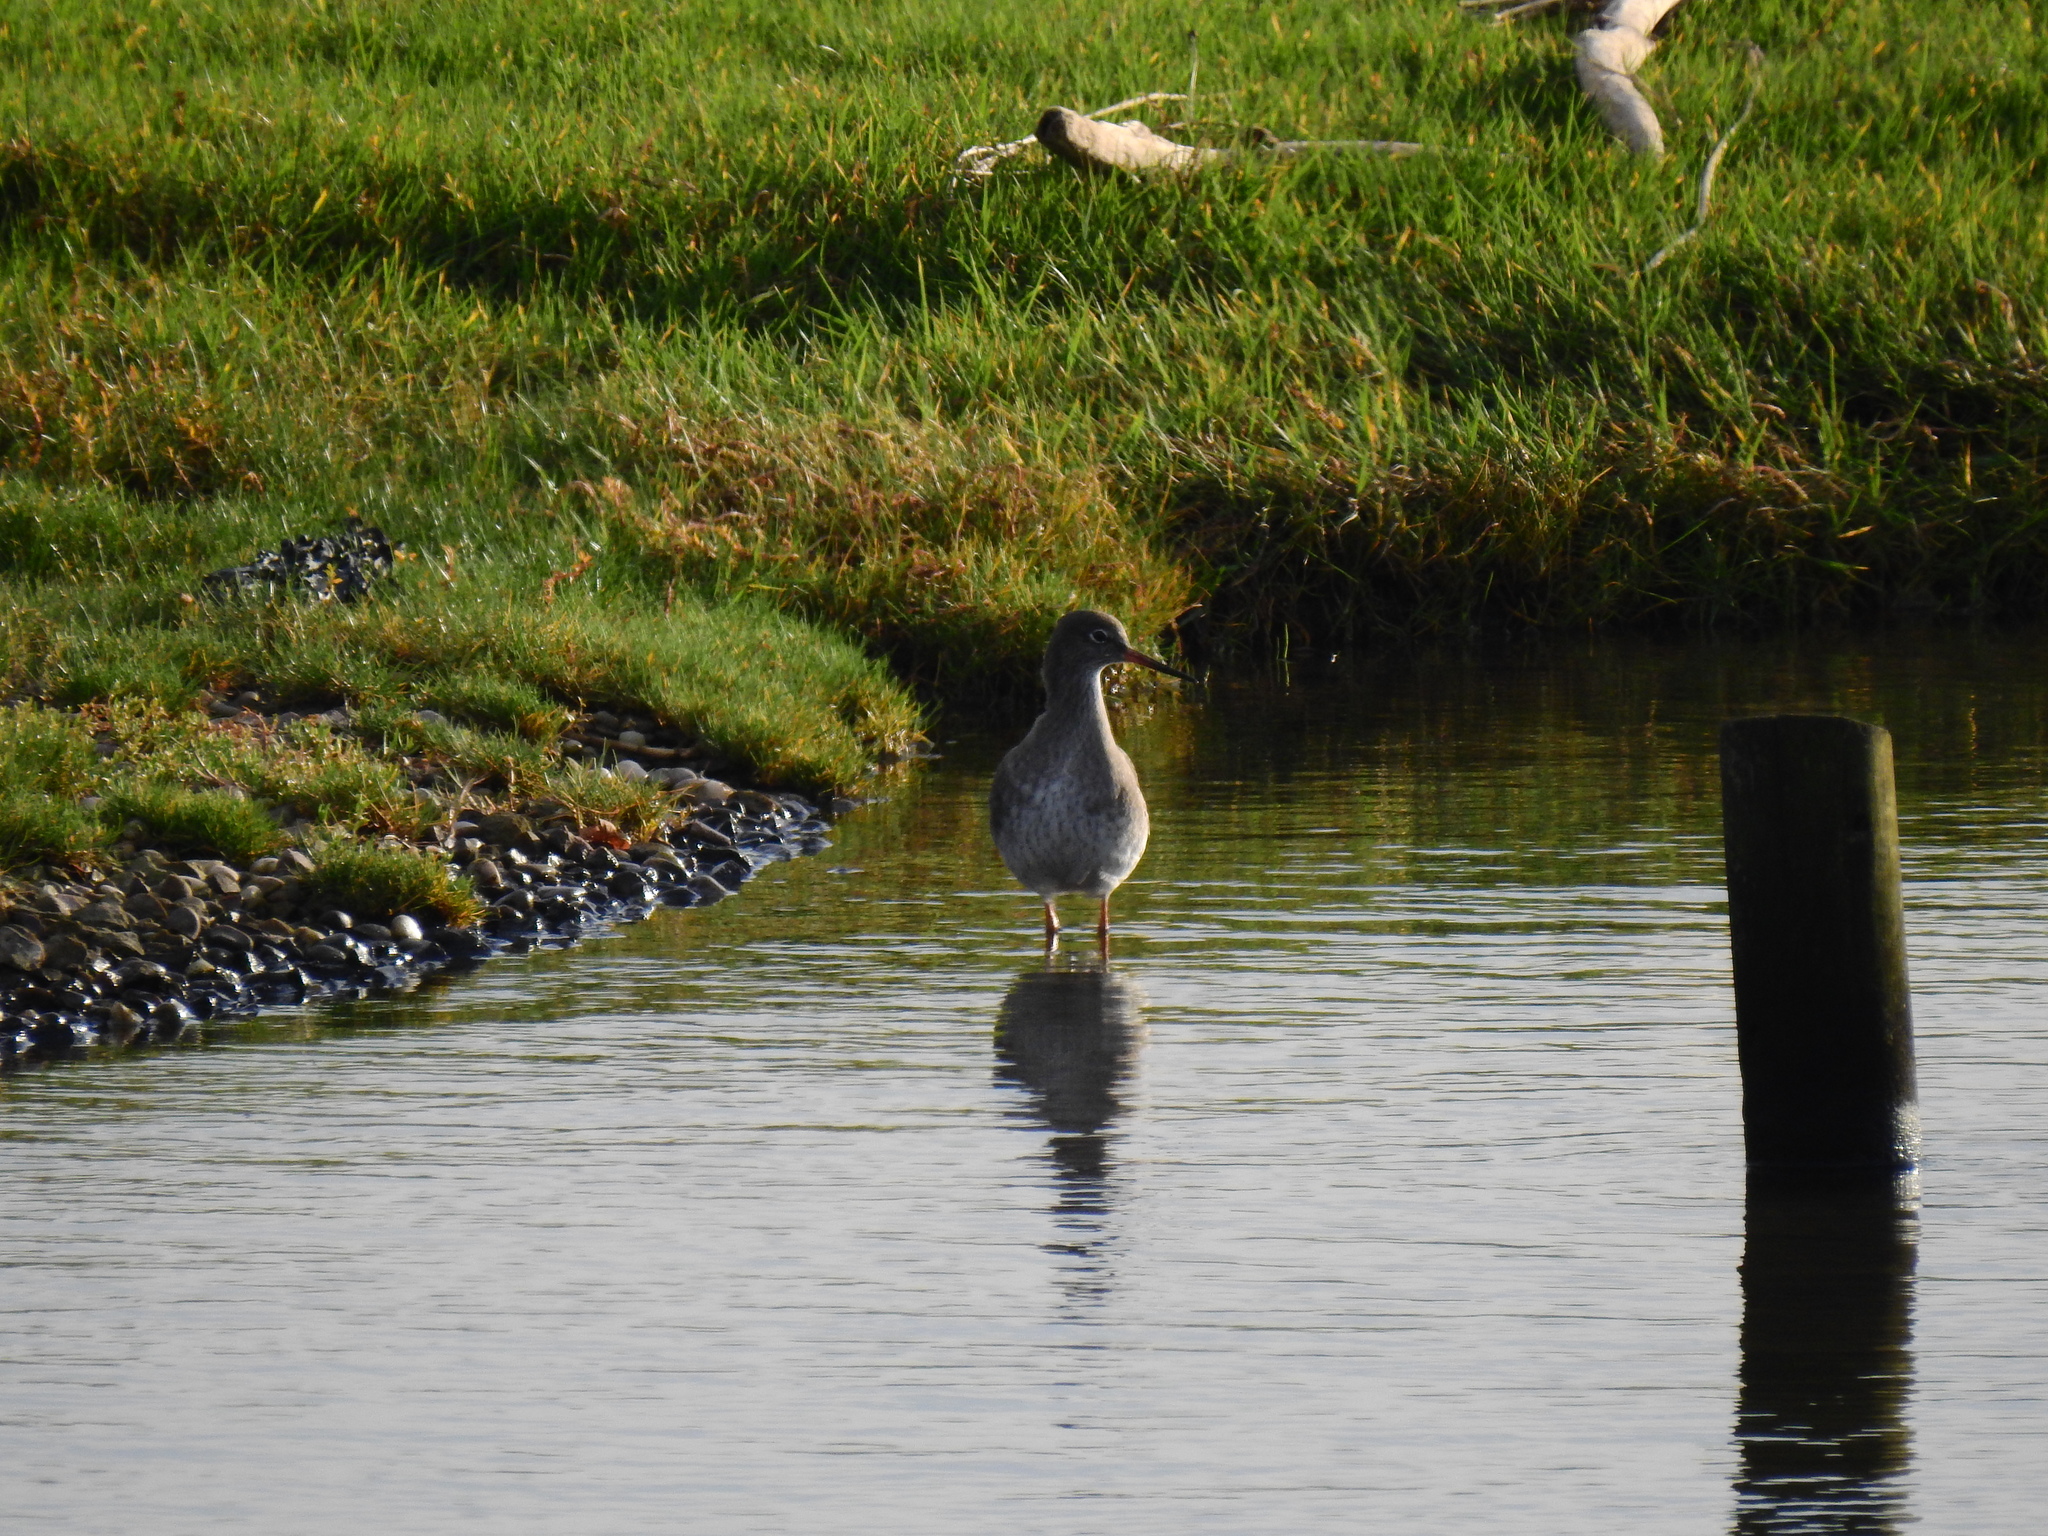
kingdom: Animalia
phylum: Chordata
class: Aves
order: Charadriiformes
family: Scolopacidae
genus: Tringa
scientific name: Tringa totanus
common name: Common redshank
